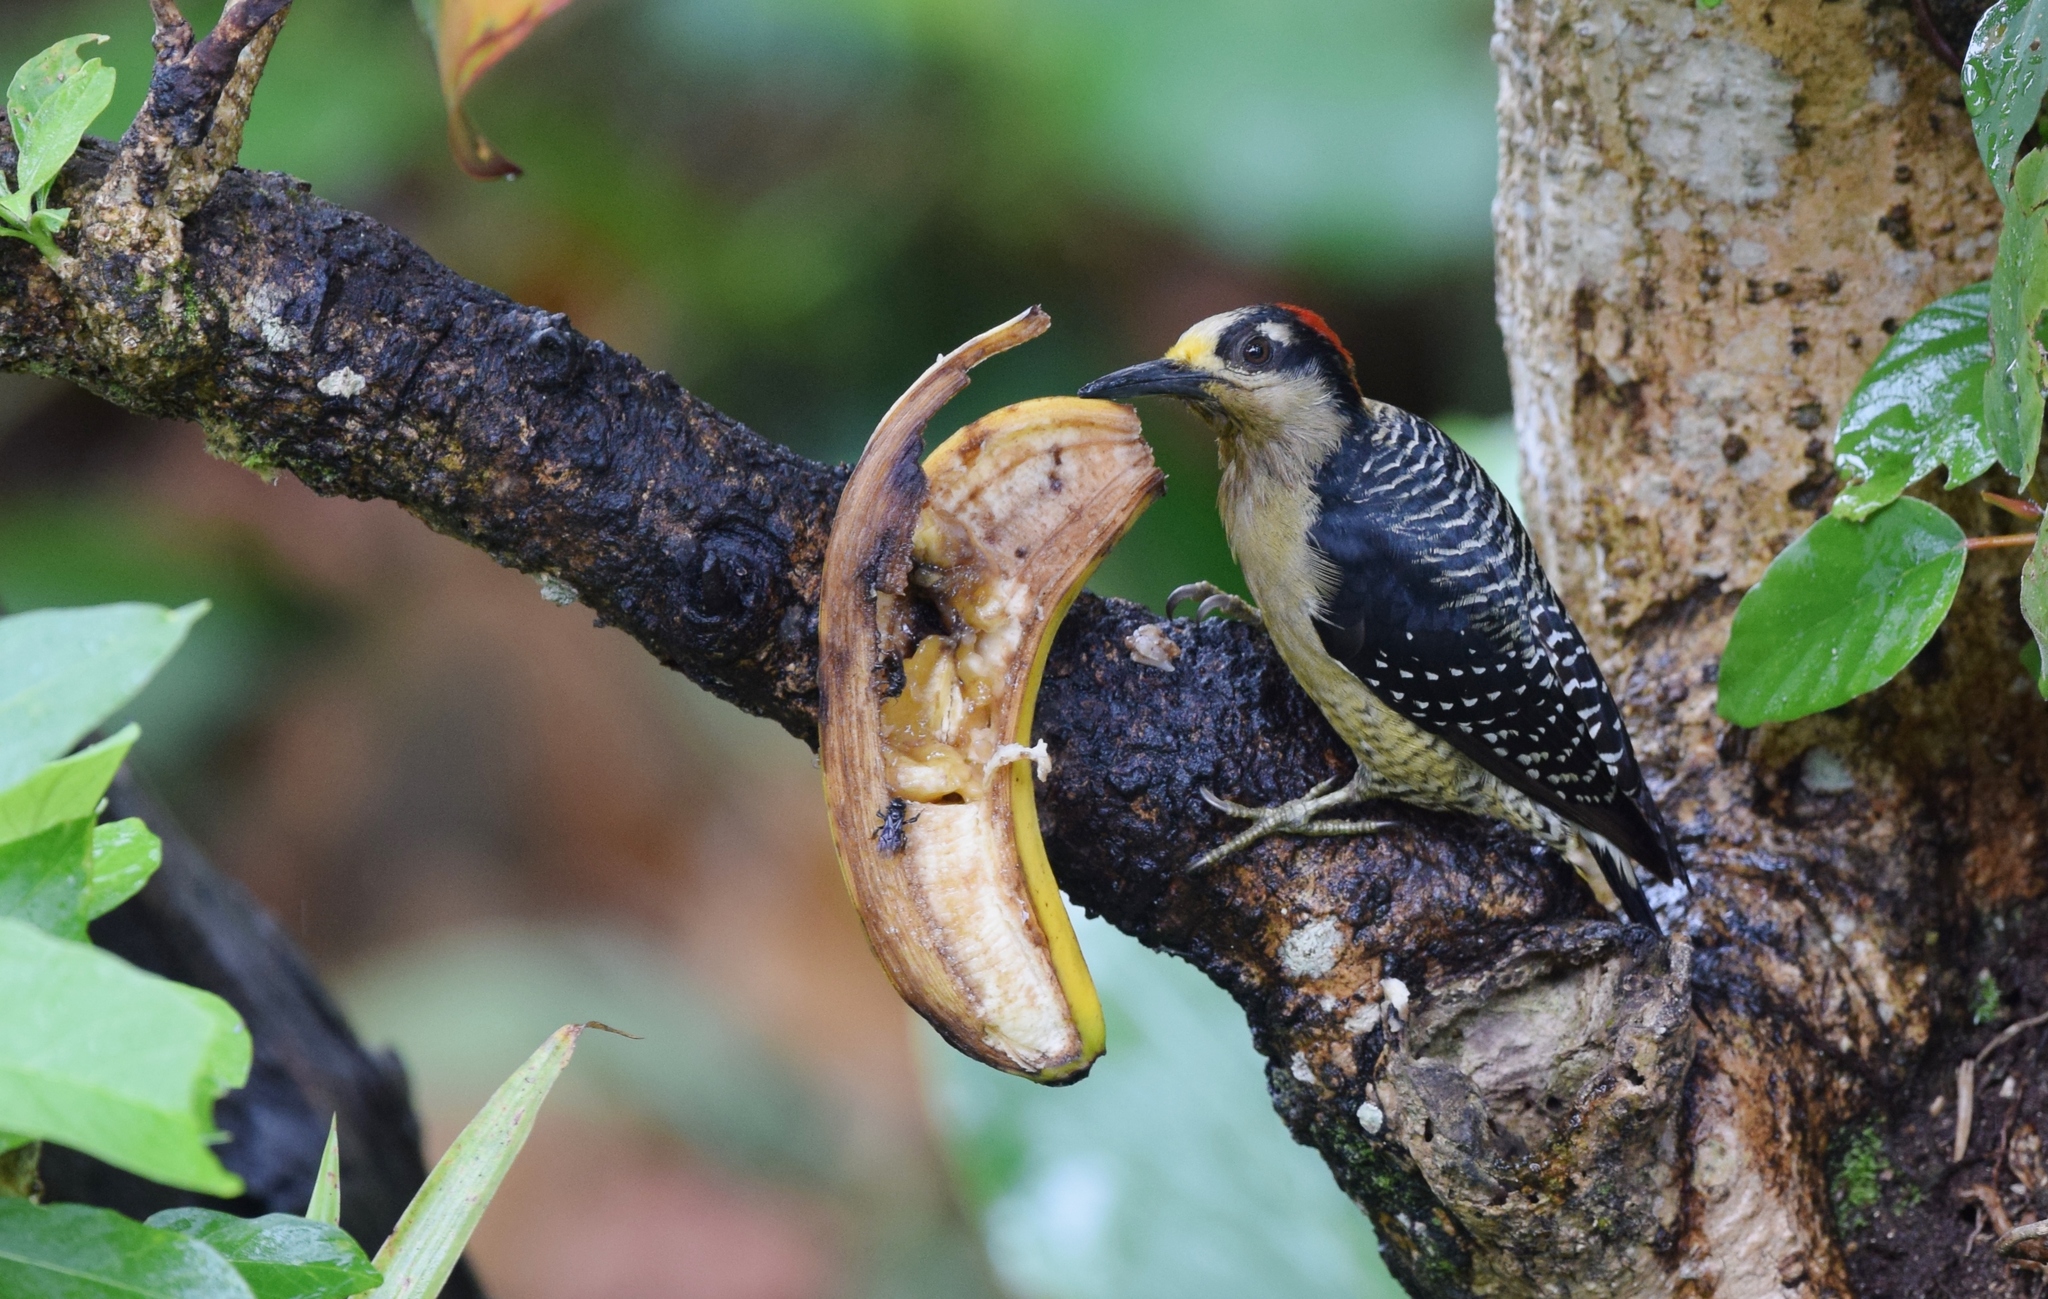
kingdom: Animalia
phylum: Chordata
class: Aves
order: Piciformes
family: Picidae
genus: Melanerpes
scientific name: Melanerpes pucherani
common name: Black-cheeked woodpecker
